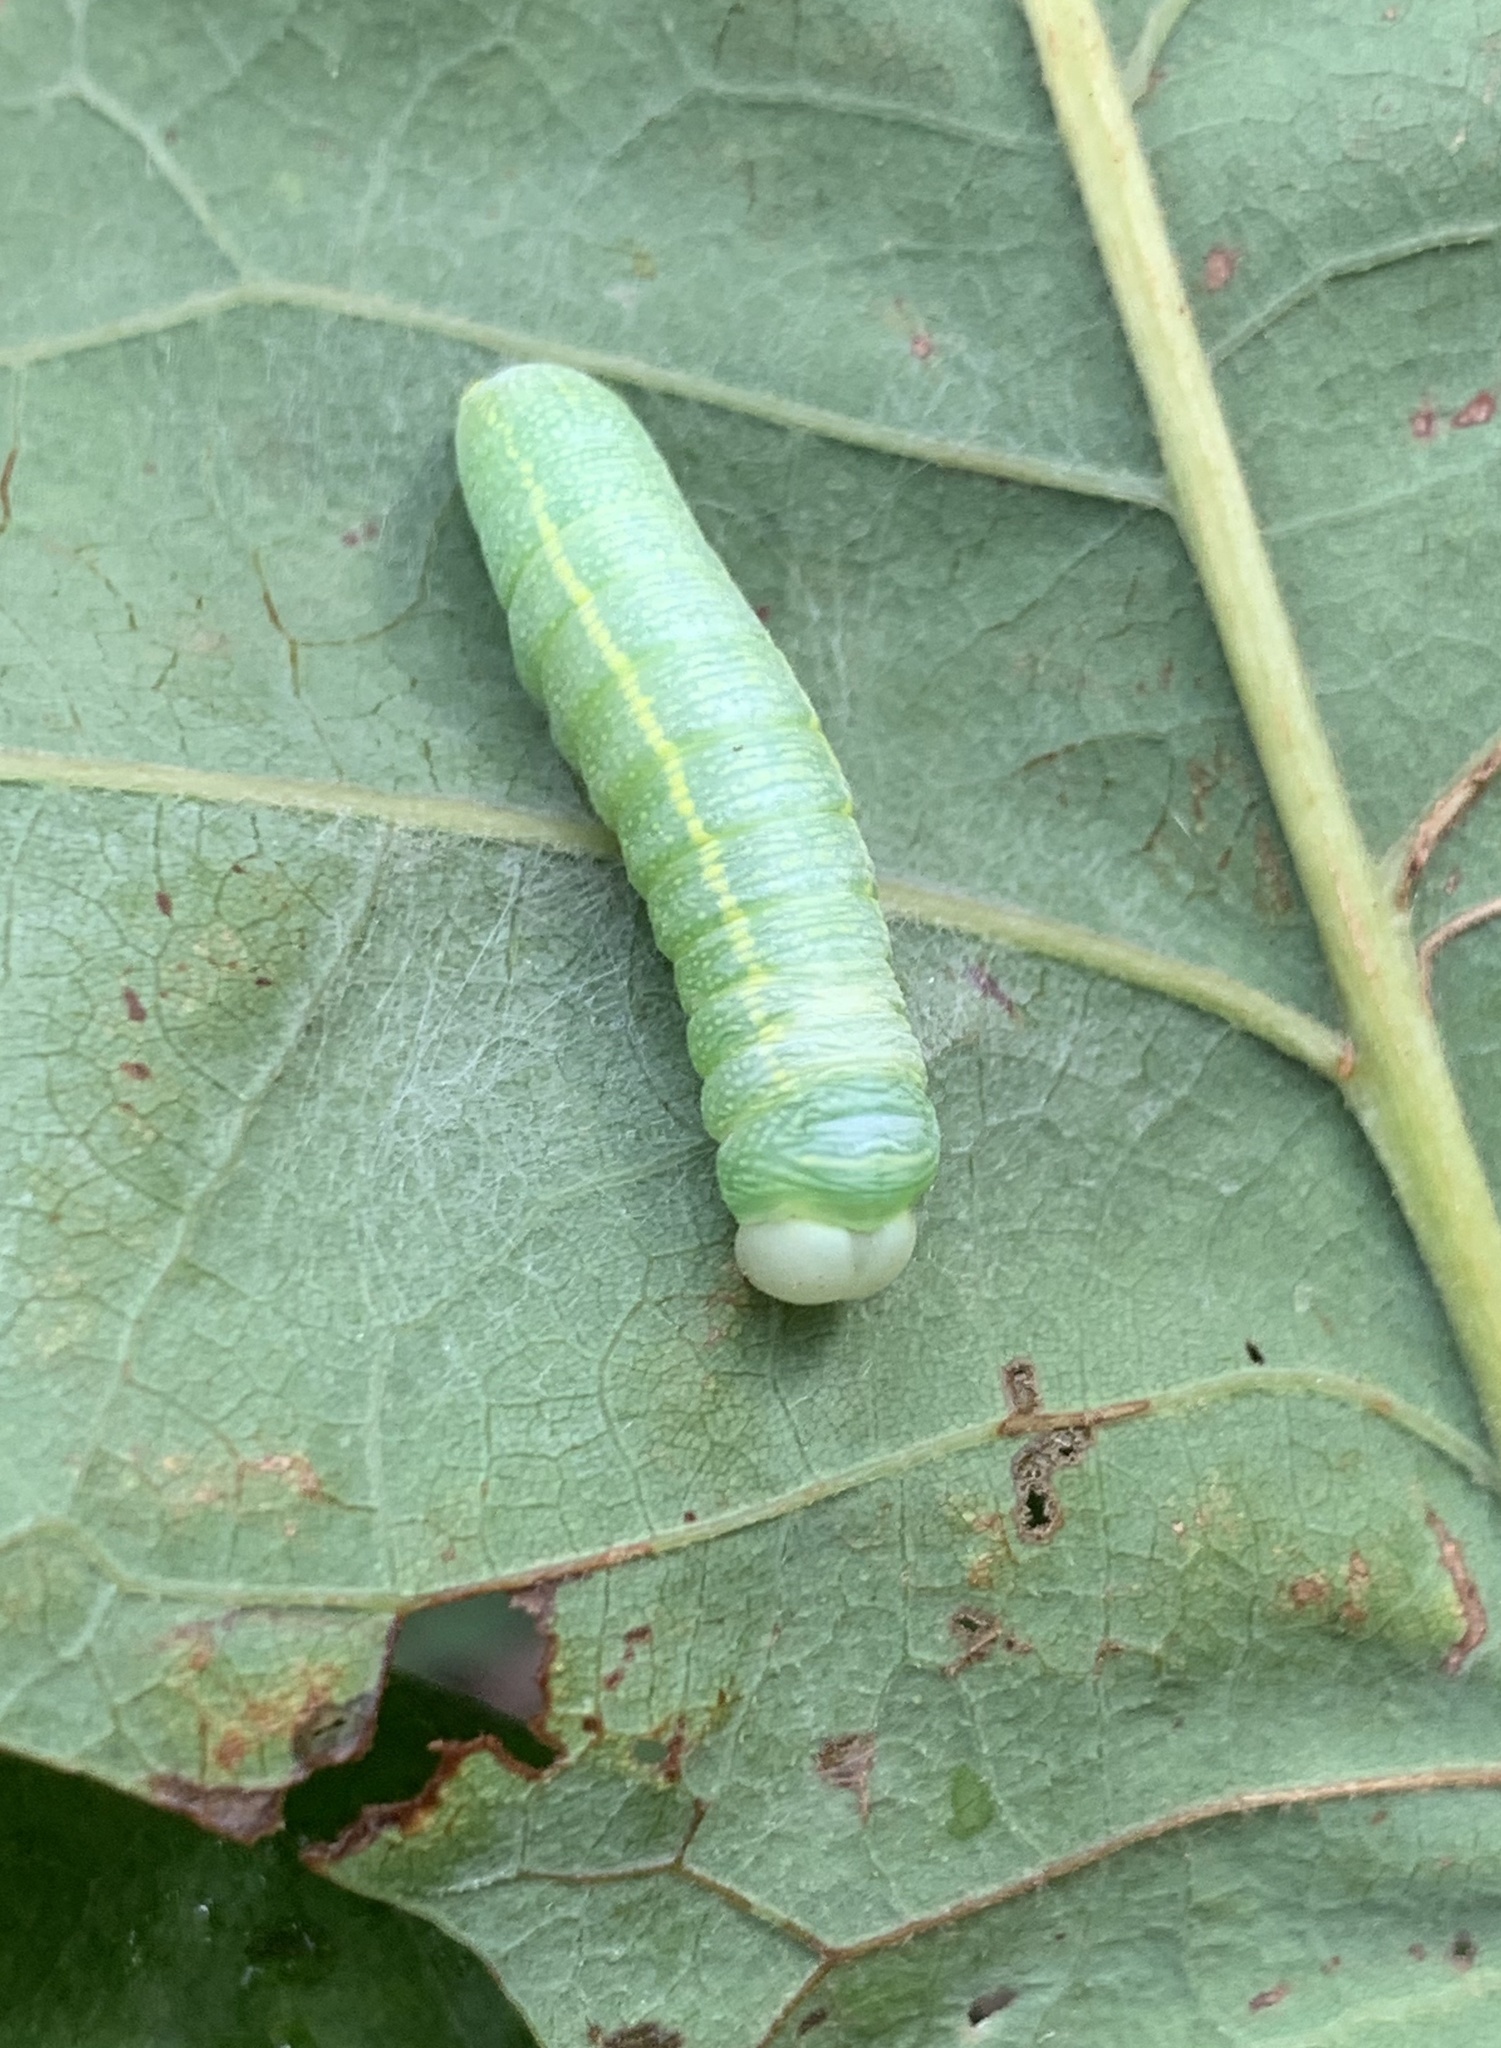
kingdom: Animalia
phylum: Arthropoda
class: Insecta
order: Lepidoptera
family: Notodontidae
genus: Nadata
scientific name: Nadata gibbosa
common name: White-dotted prominent
